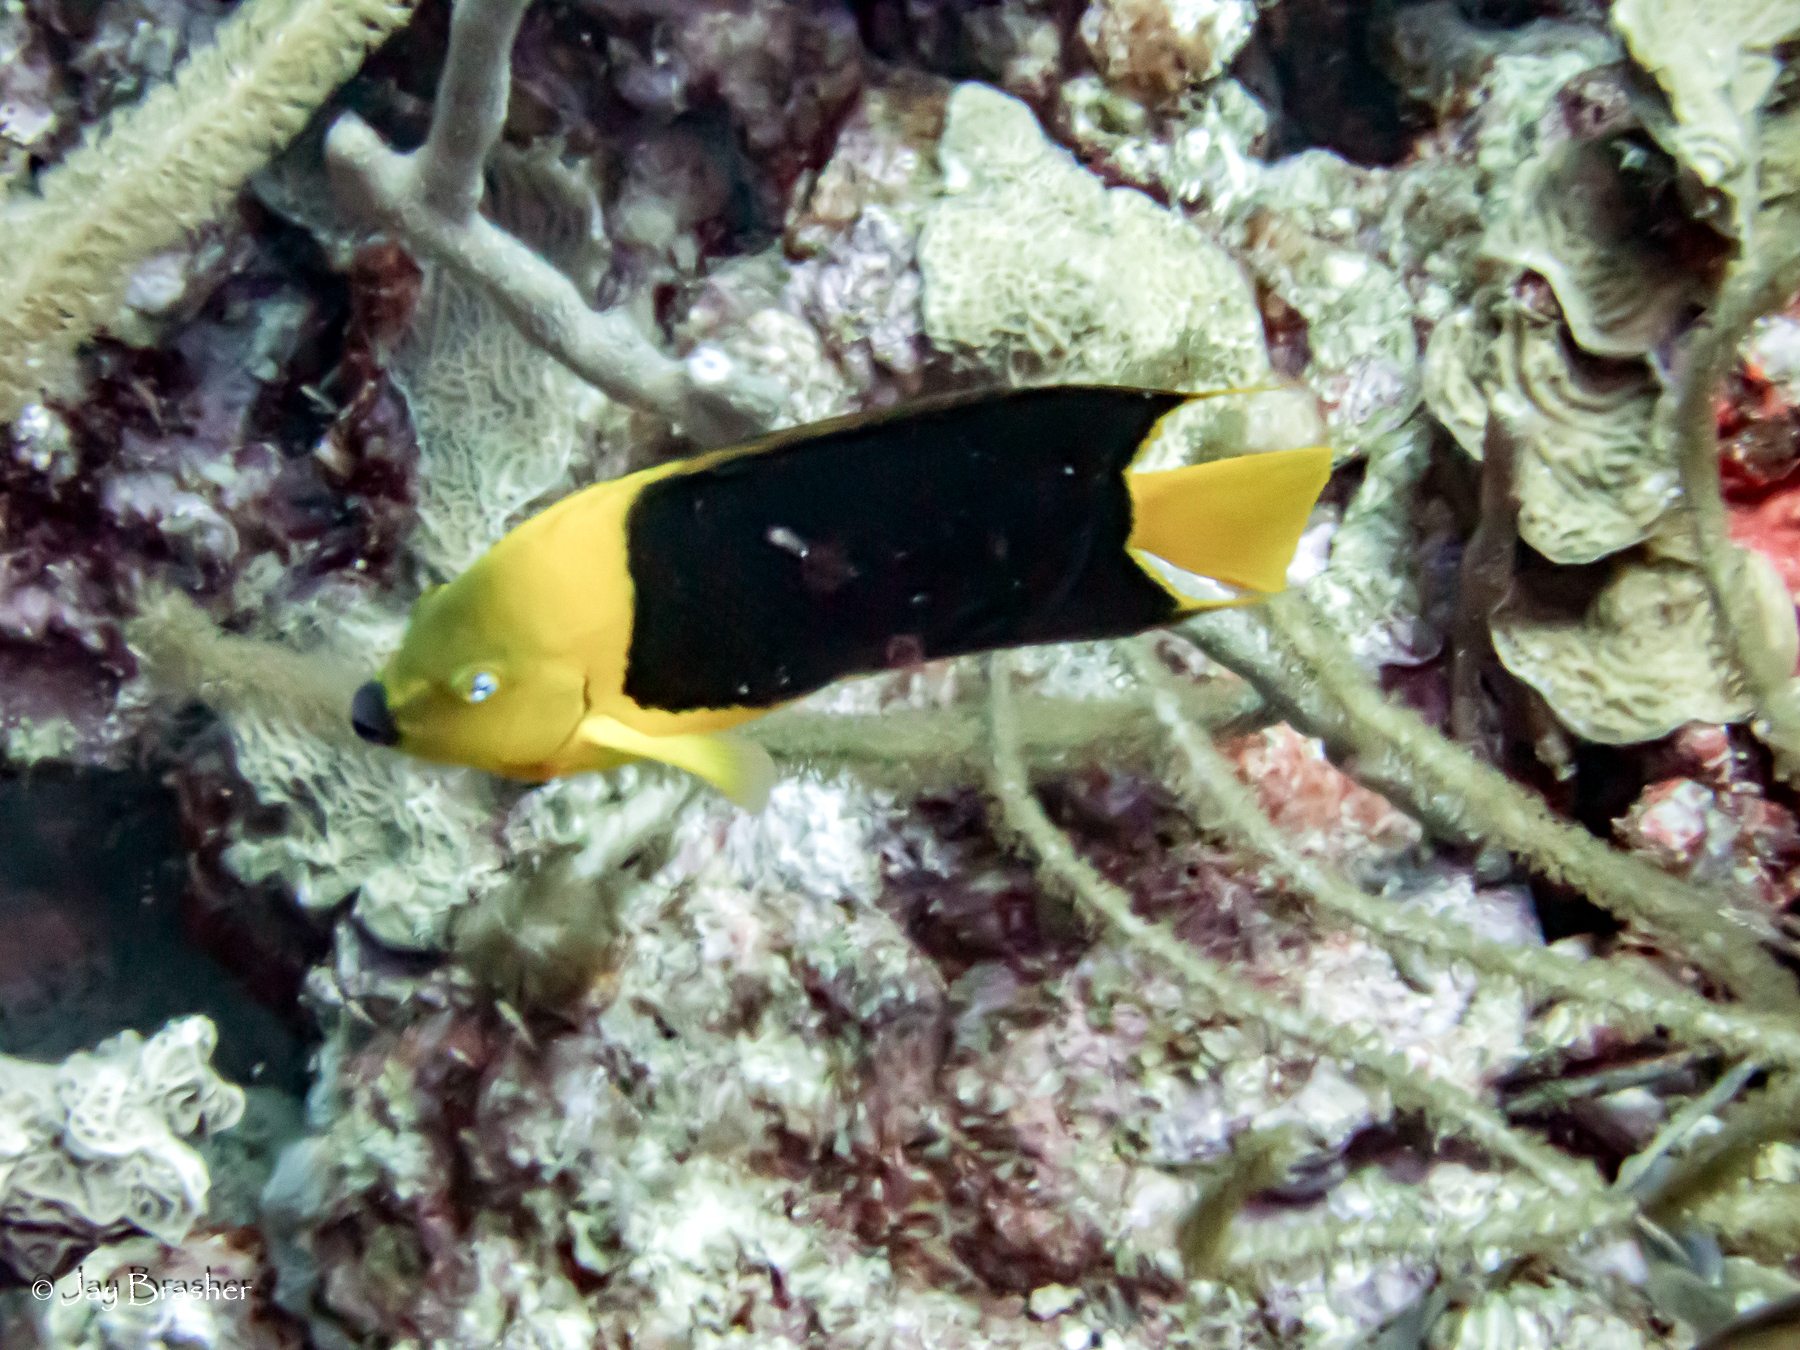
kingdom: Animalia
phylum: Chordata
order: Perciformes
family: Pomacanthidae
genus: Holacanthus
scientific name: Holacanthus tricolor
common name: Rock beauty
